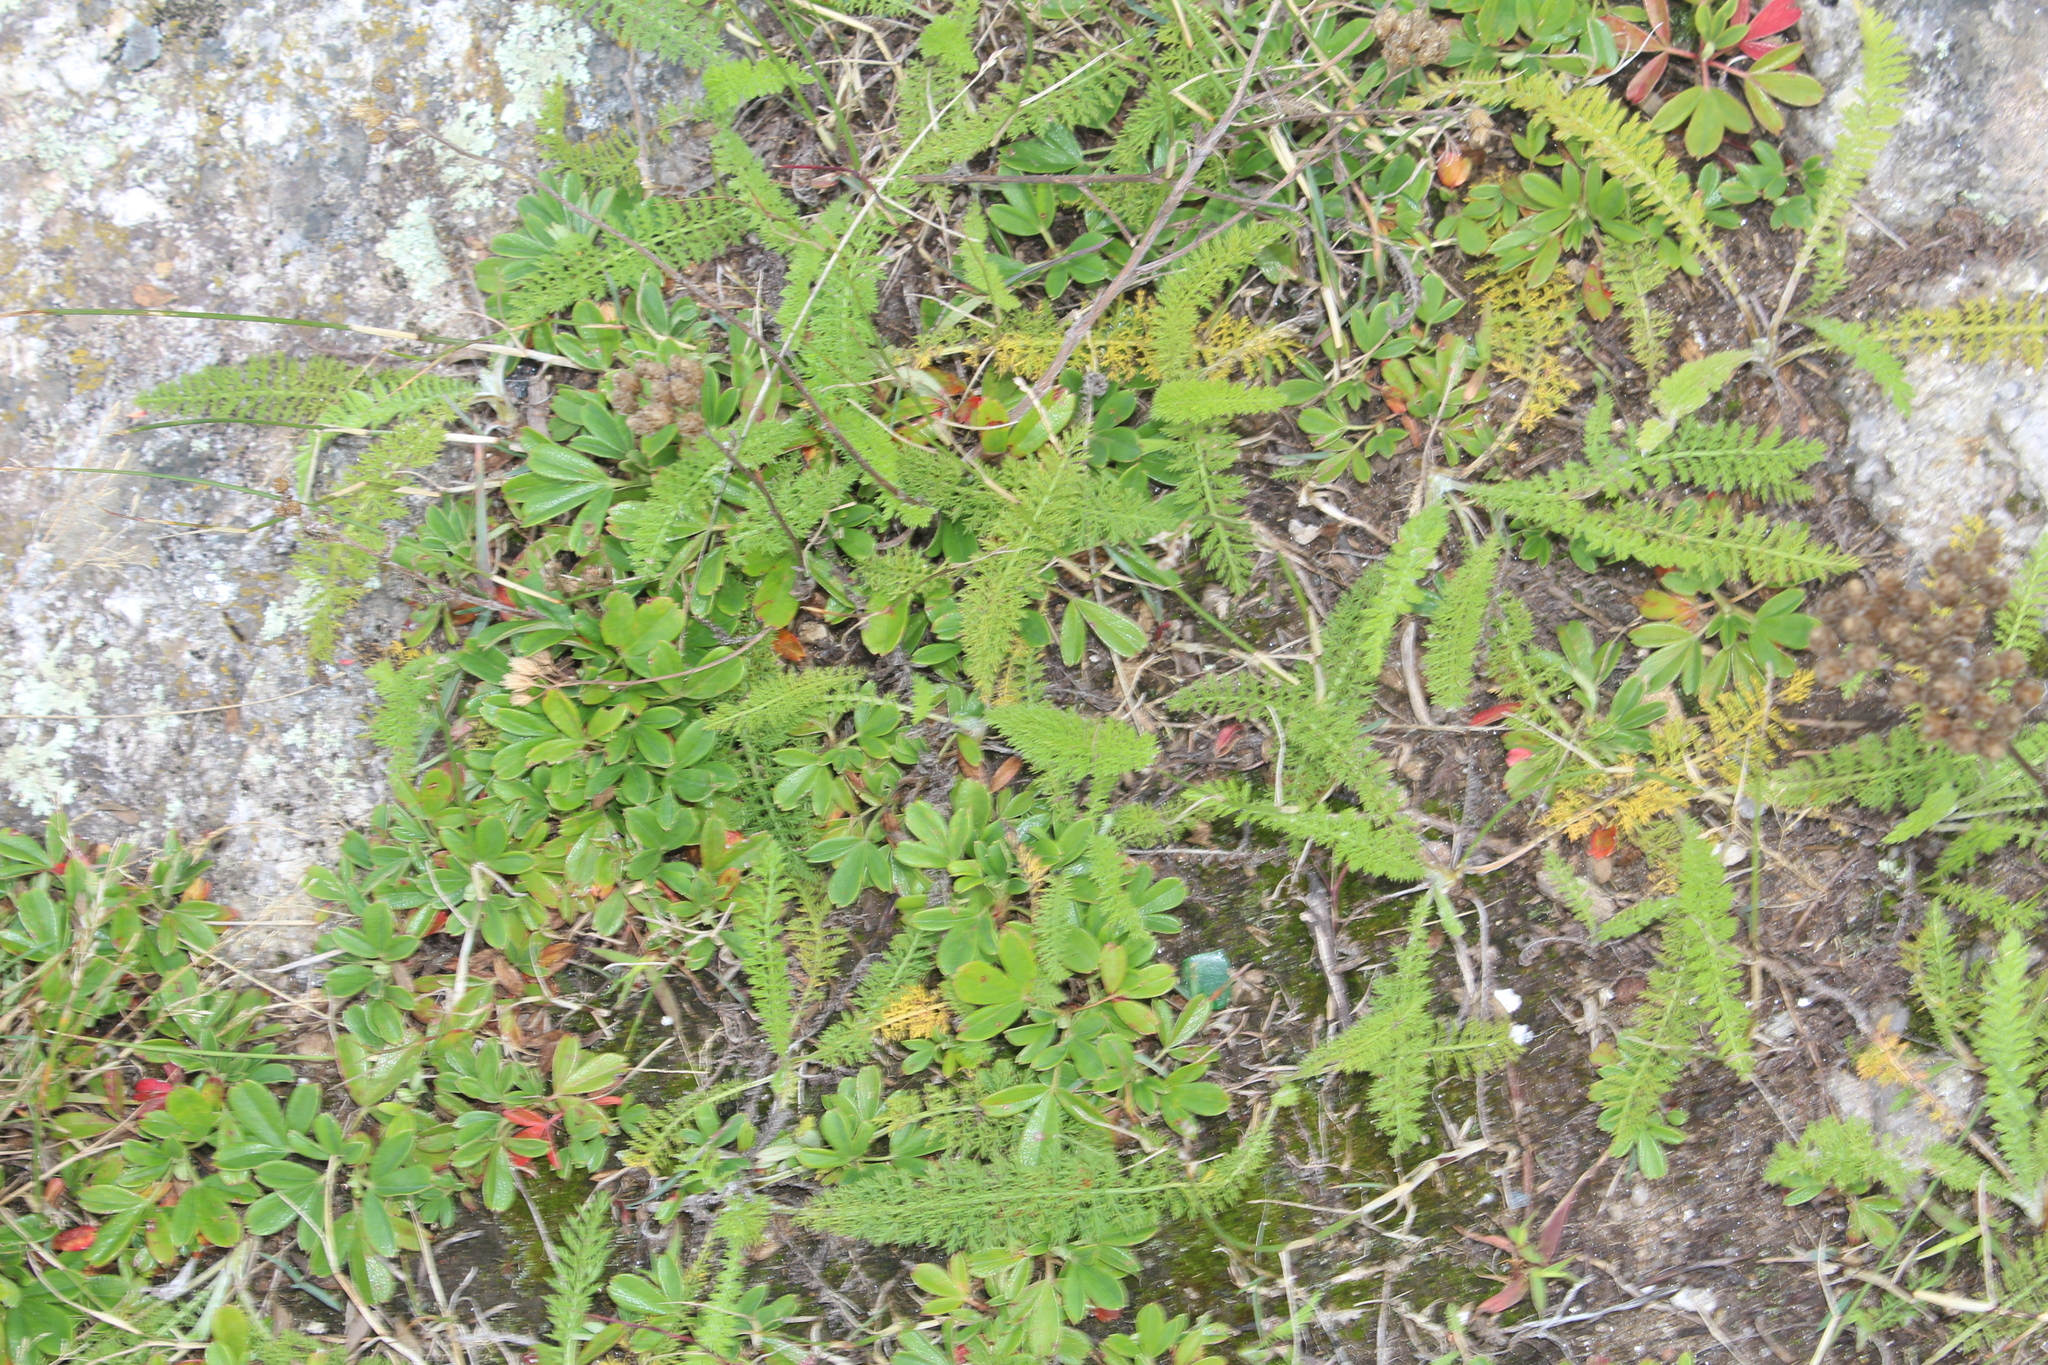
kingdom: Plantae
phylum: Tracheophyta
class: Magnoliopsida
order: Asterales
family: Asteraceae
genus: Achillea
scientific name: Achillea millefolium
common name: Yarrow
